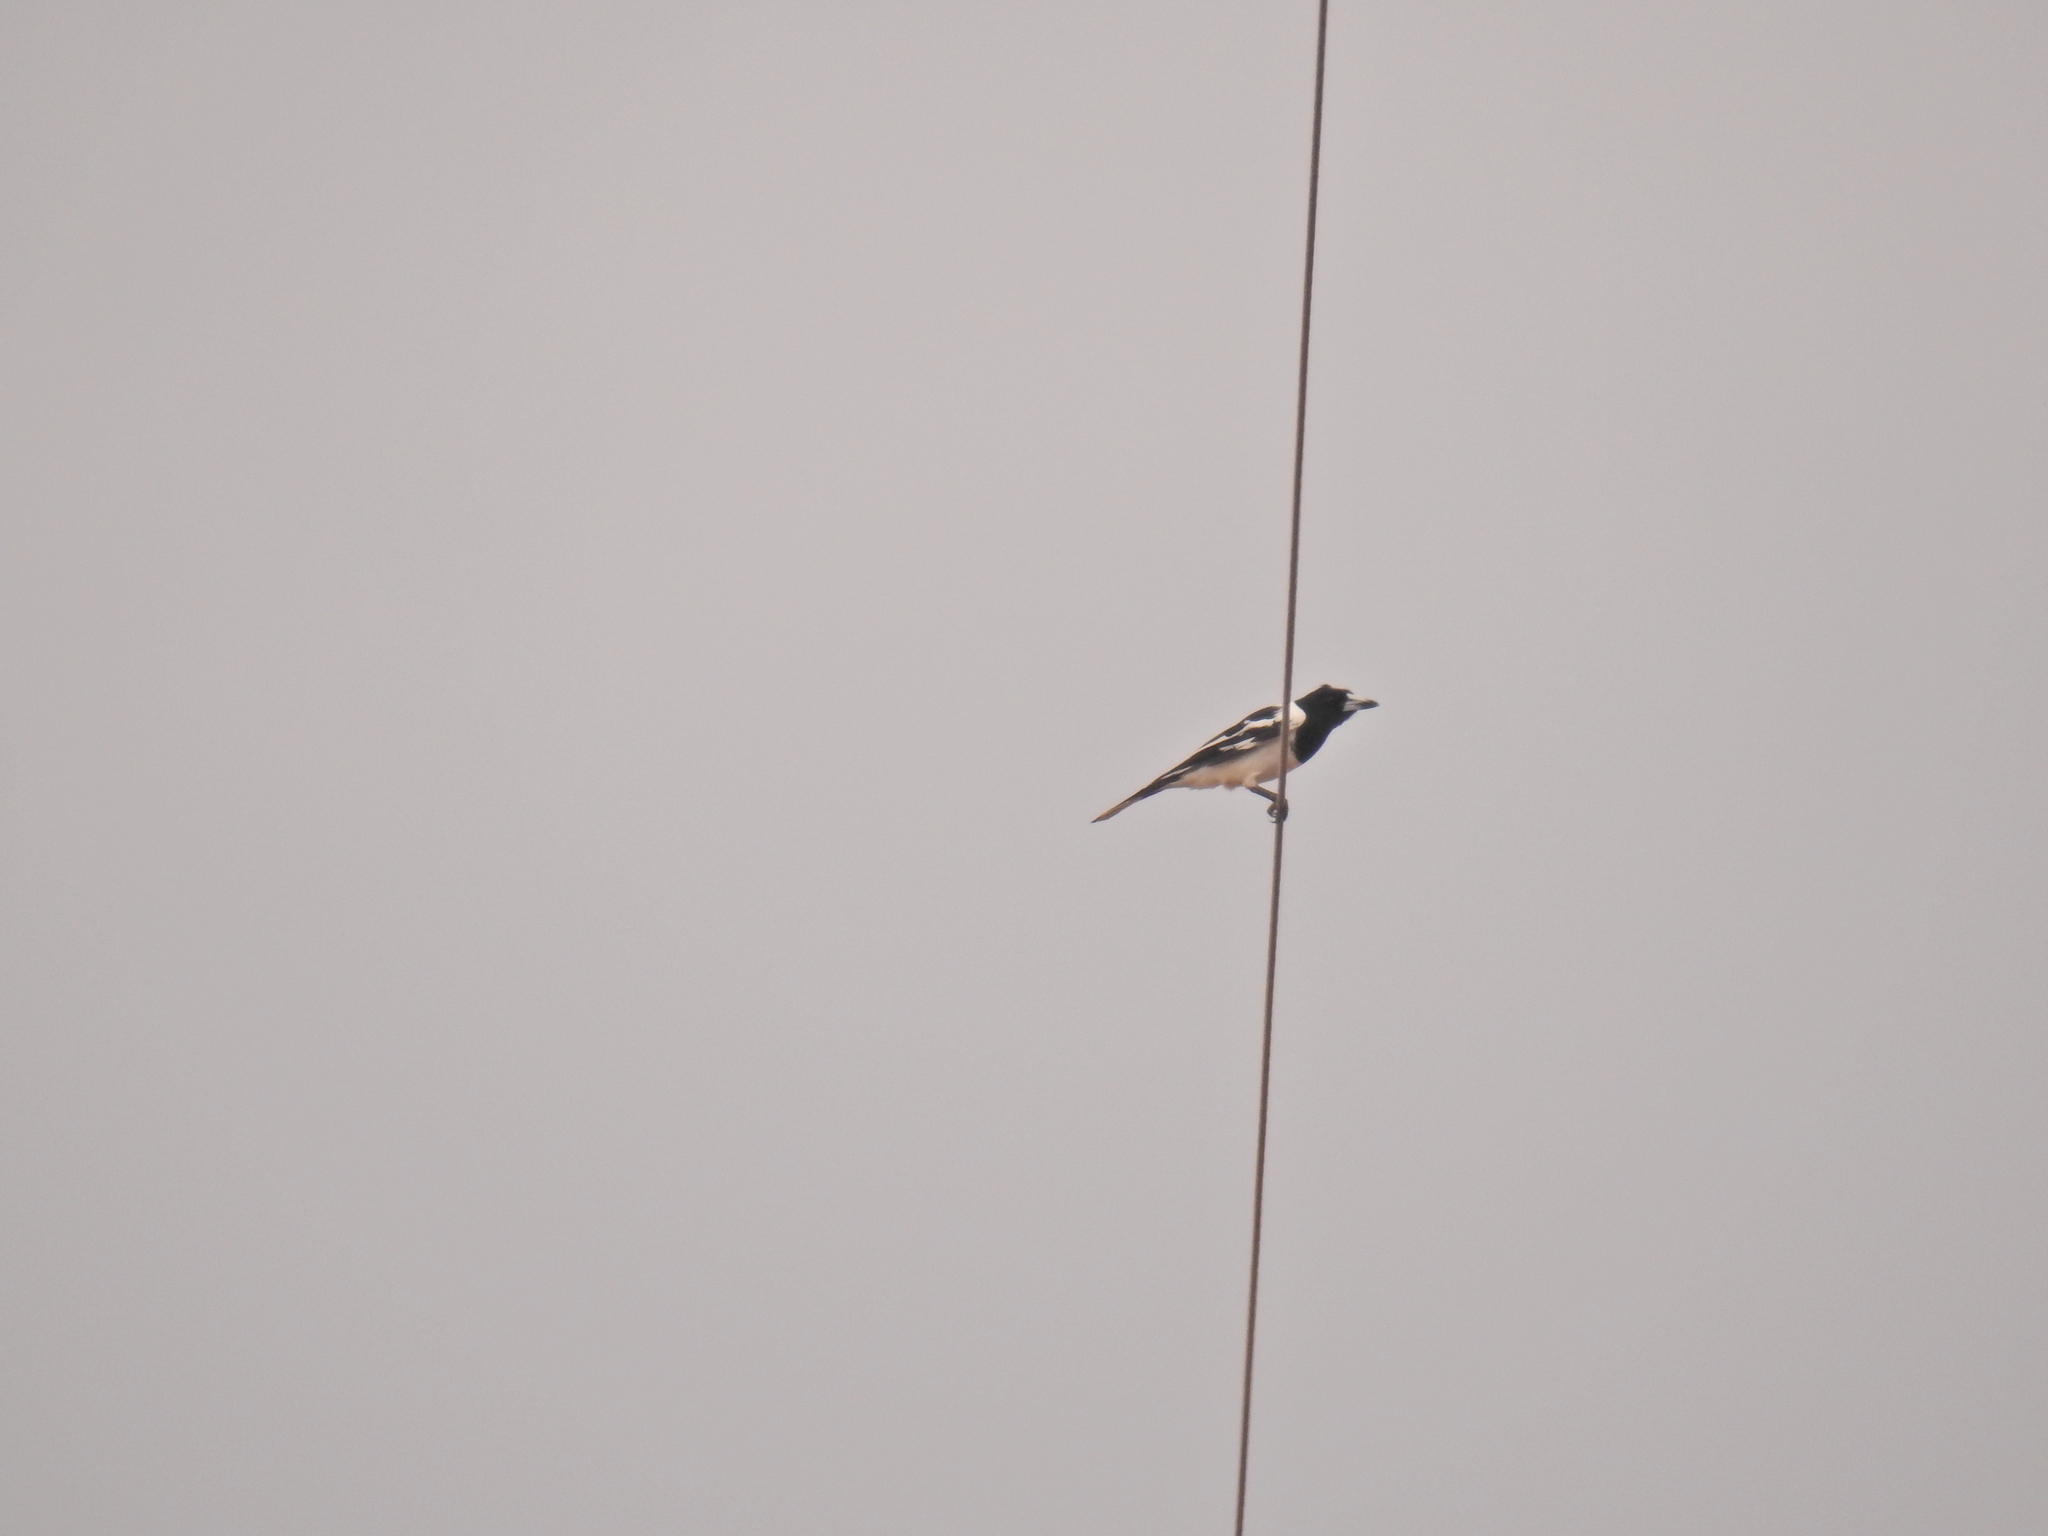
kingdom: Animalia
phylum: Chordata
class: Aves
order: Passeriformes
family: Cracticidae
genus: Cracticus
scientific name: Cracticus nigrogularis
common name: Pied butcherbird
